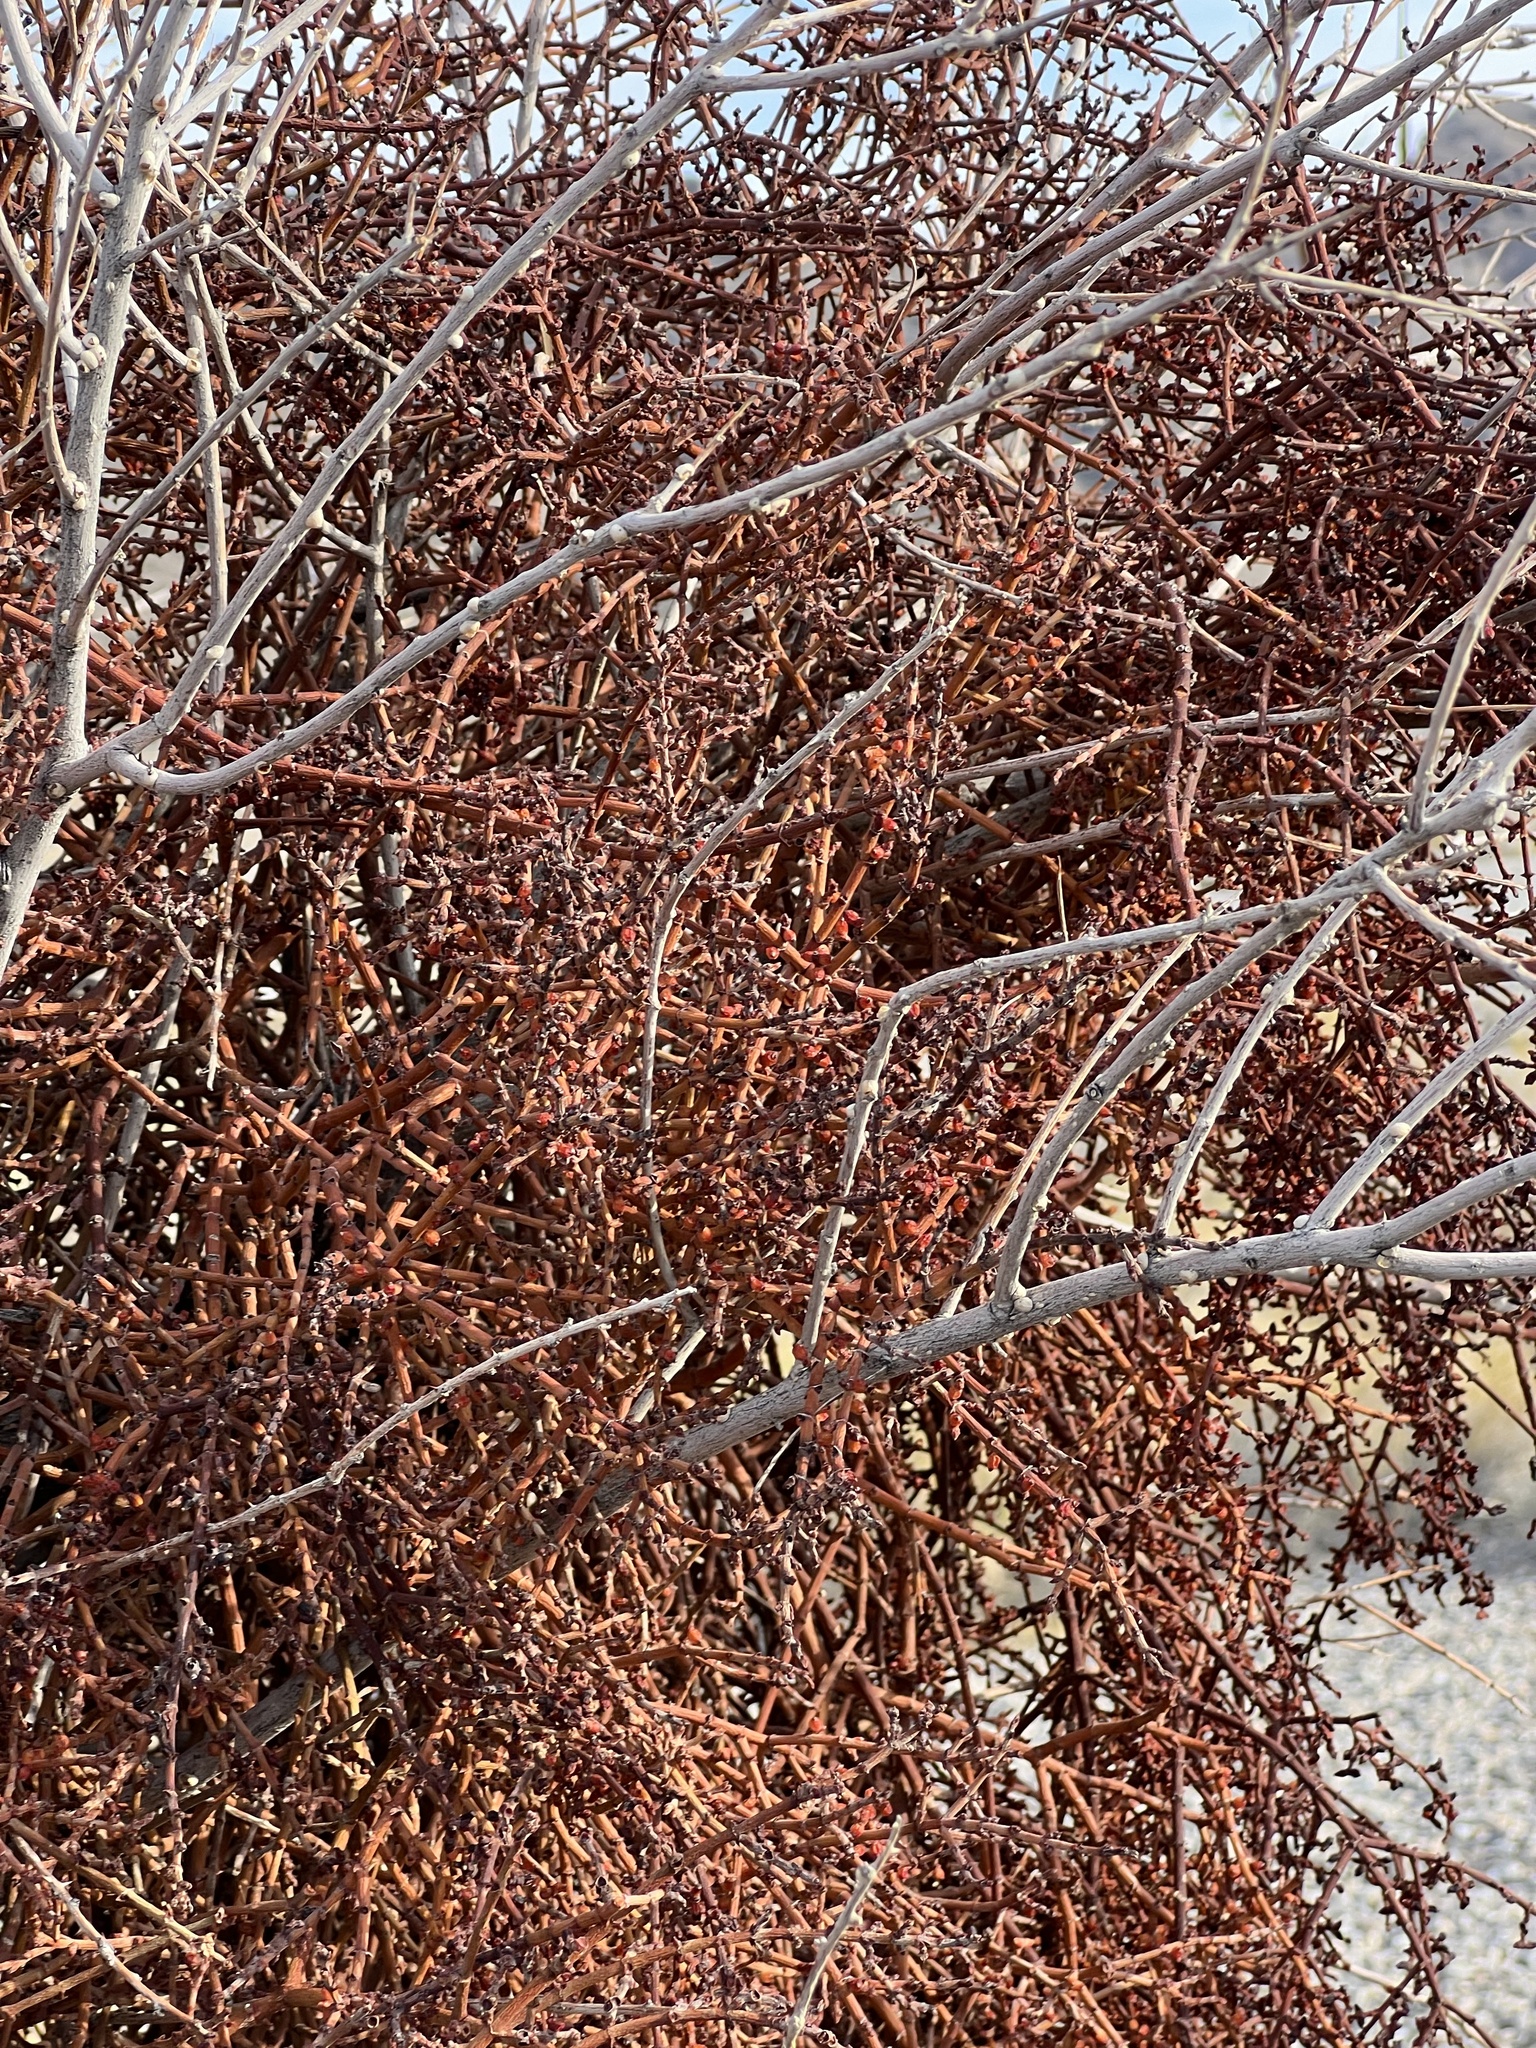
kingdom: Plantae
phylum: Tracheophyta
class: Magnoliopsida
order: Santalales
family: Viscaceae
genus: Phoradendron
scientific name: Phoradendron californicum
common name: Acacia mistletoe
